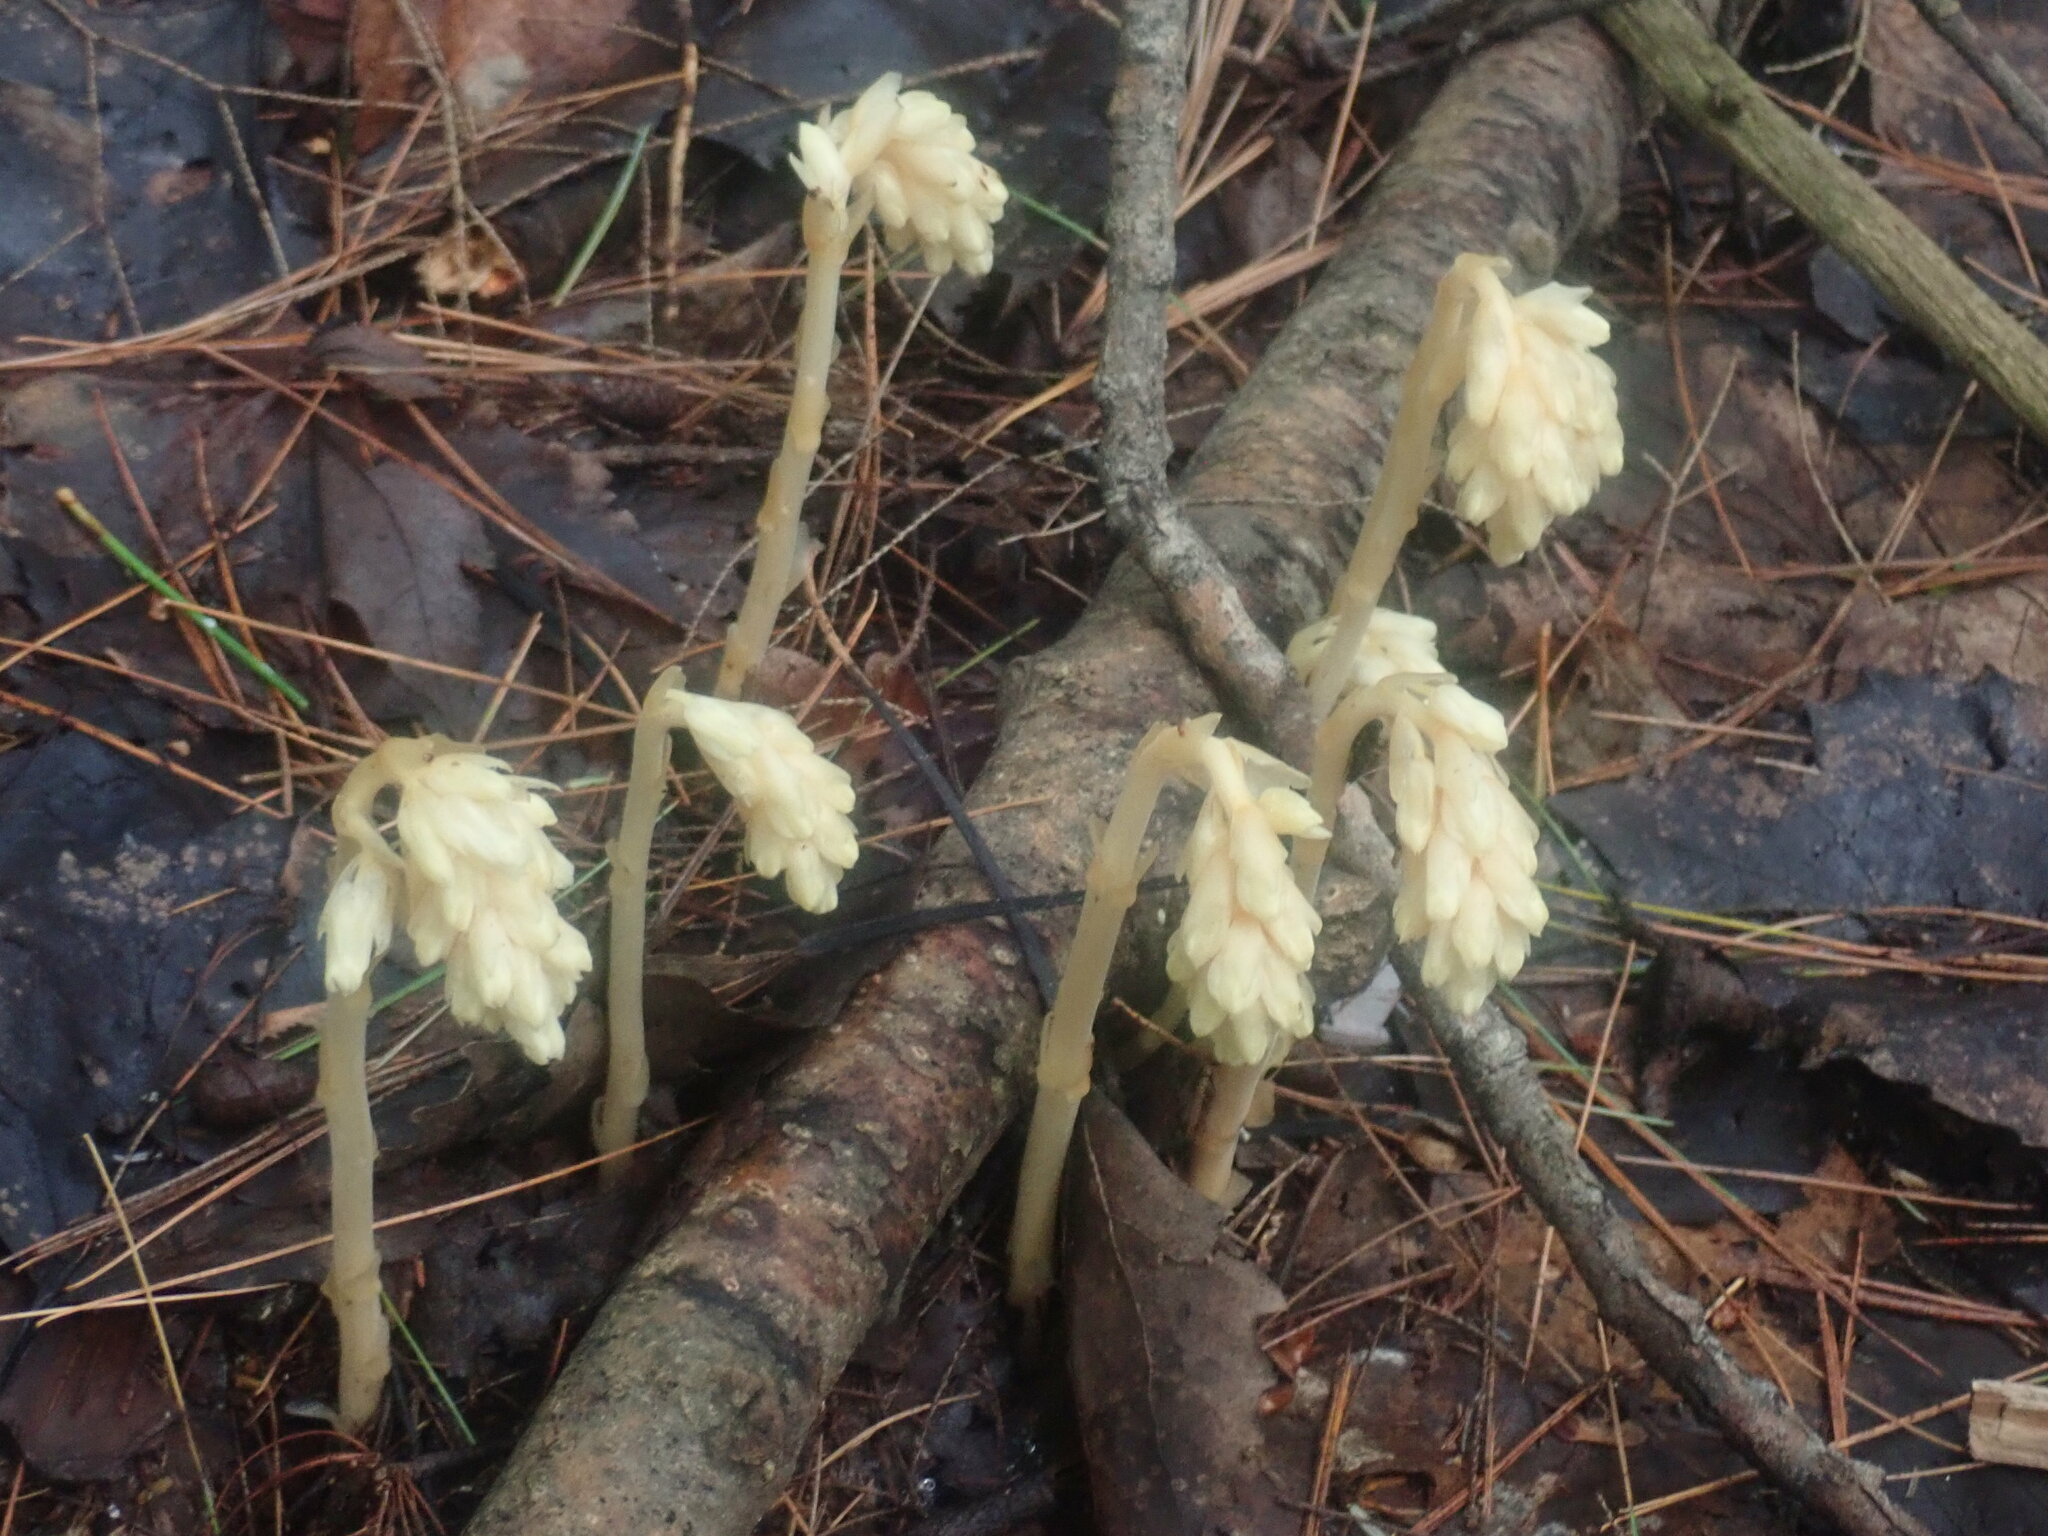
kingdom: Plantae
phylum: Tracheophyta
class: Magnoliopsida
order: Ericales
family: Ericaceae
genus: Hypopitys
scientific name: Hypopitys monotropa
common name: Yellow bird's-nest
